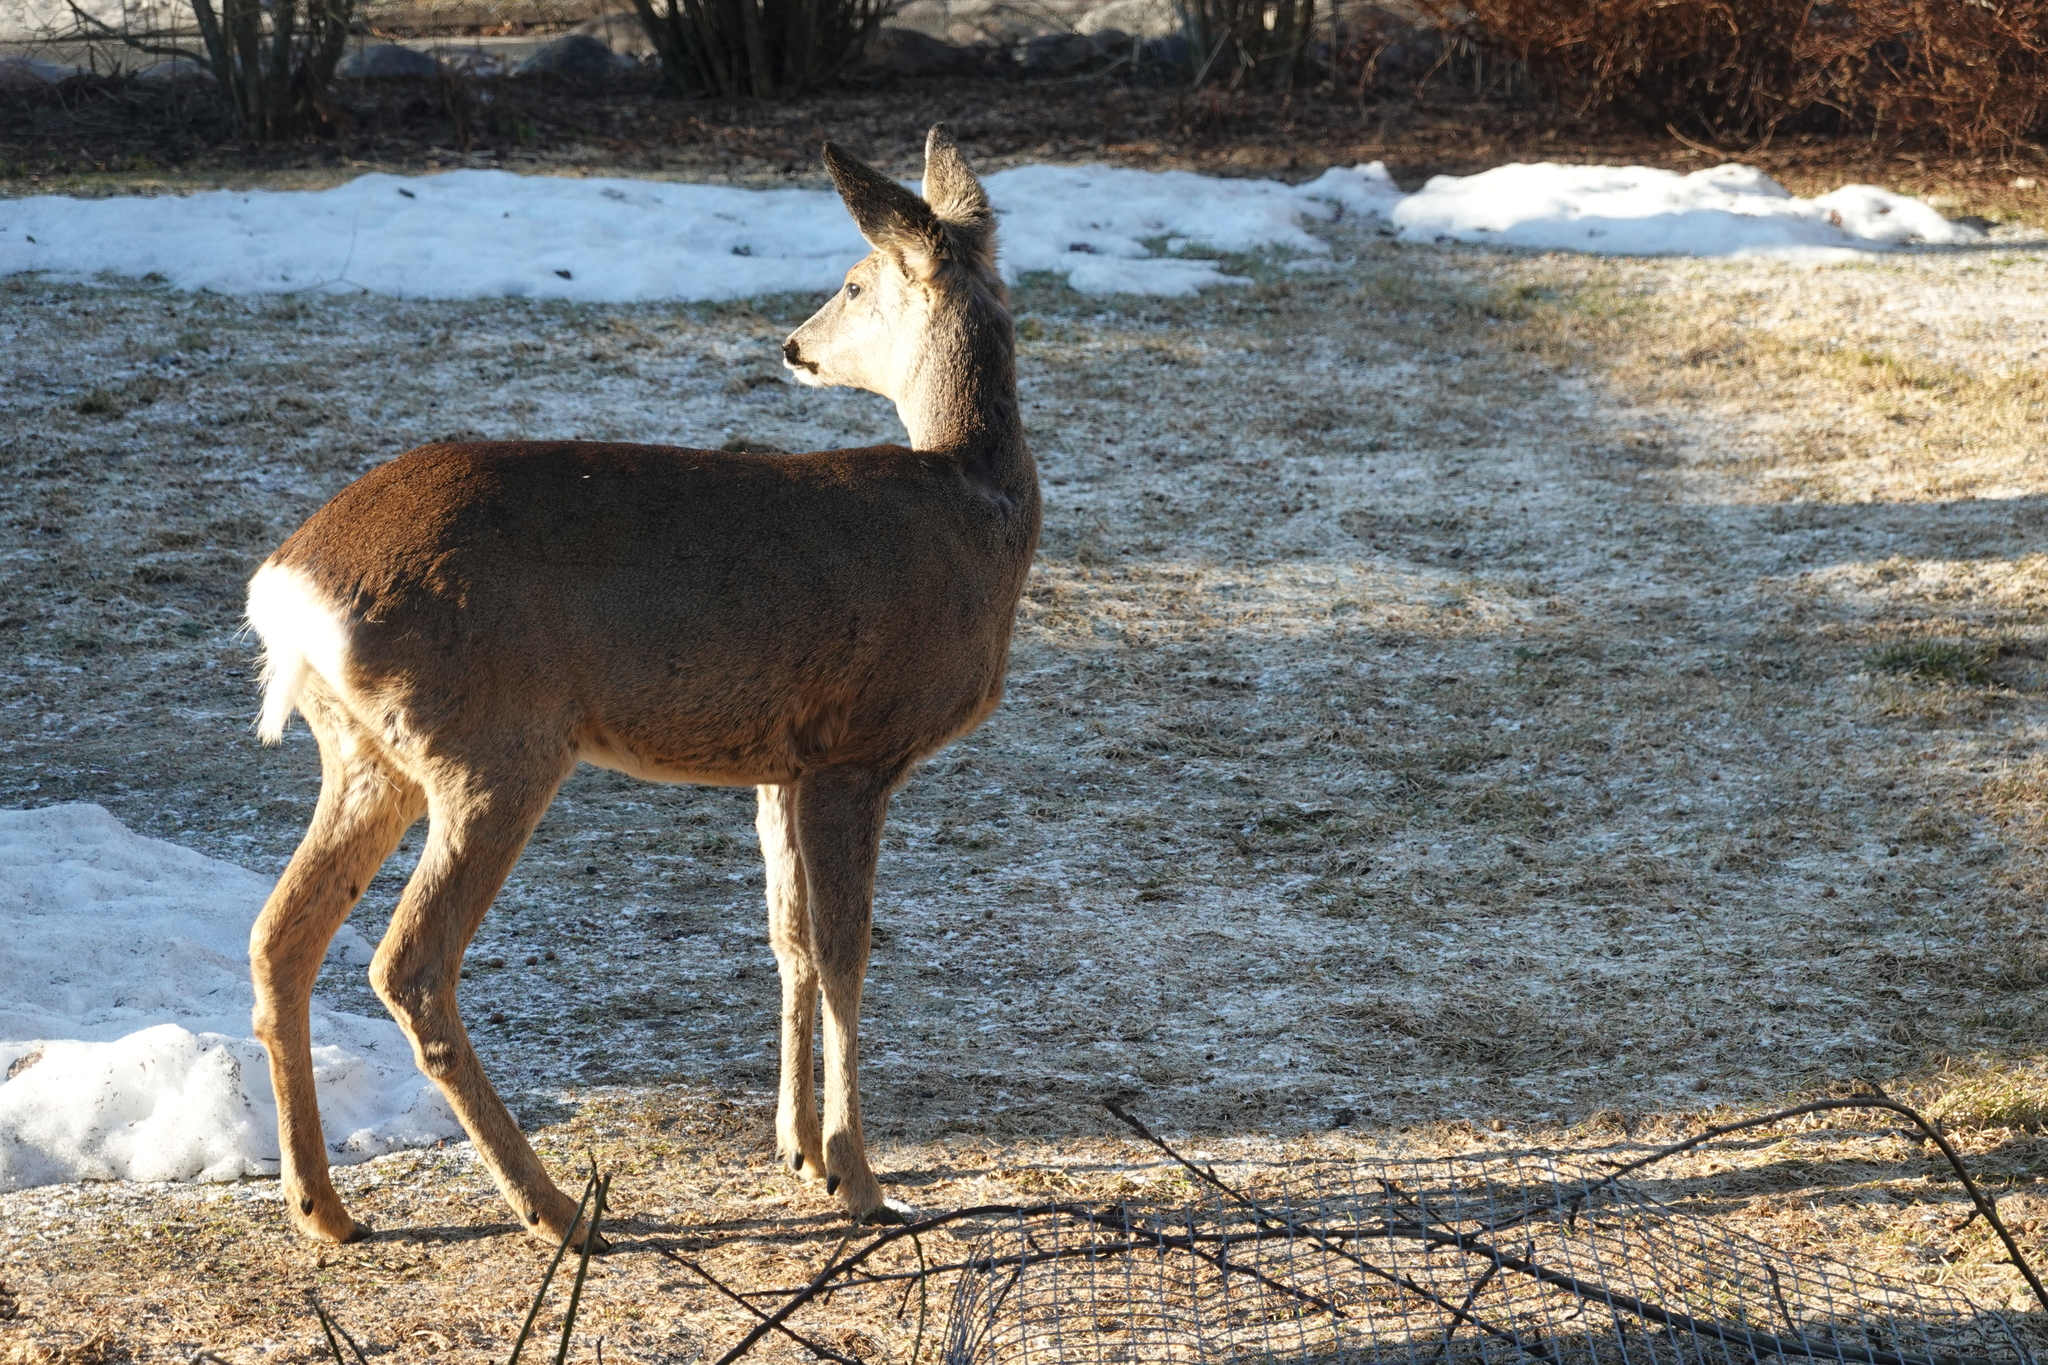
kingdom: Animalia
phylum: Chordata
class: Mammalia
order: Artiodactyla
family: Cervidae
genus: Capreolus
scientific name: Capreolus capreolus
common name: Western roe deer
